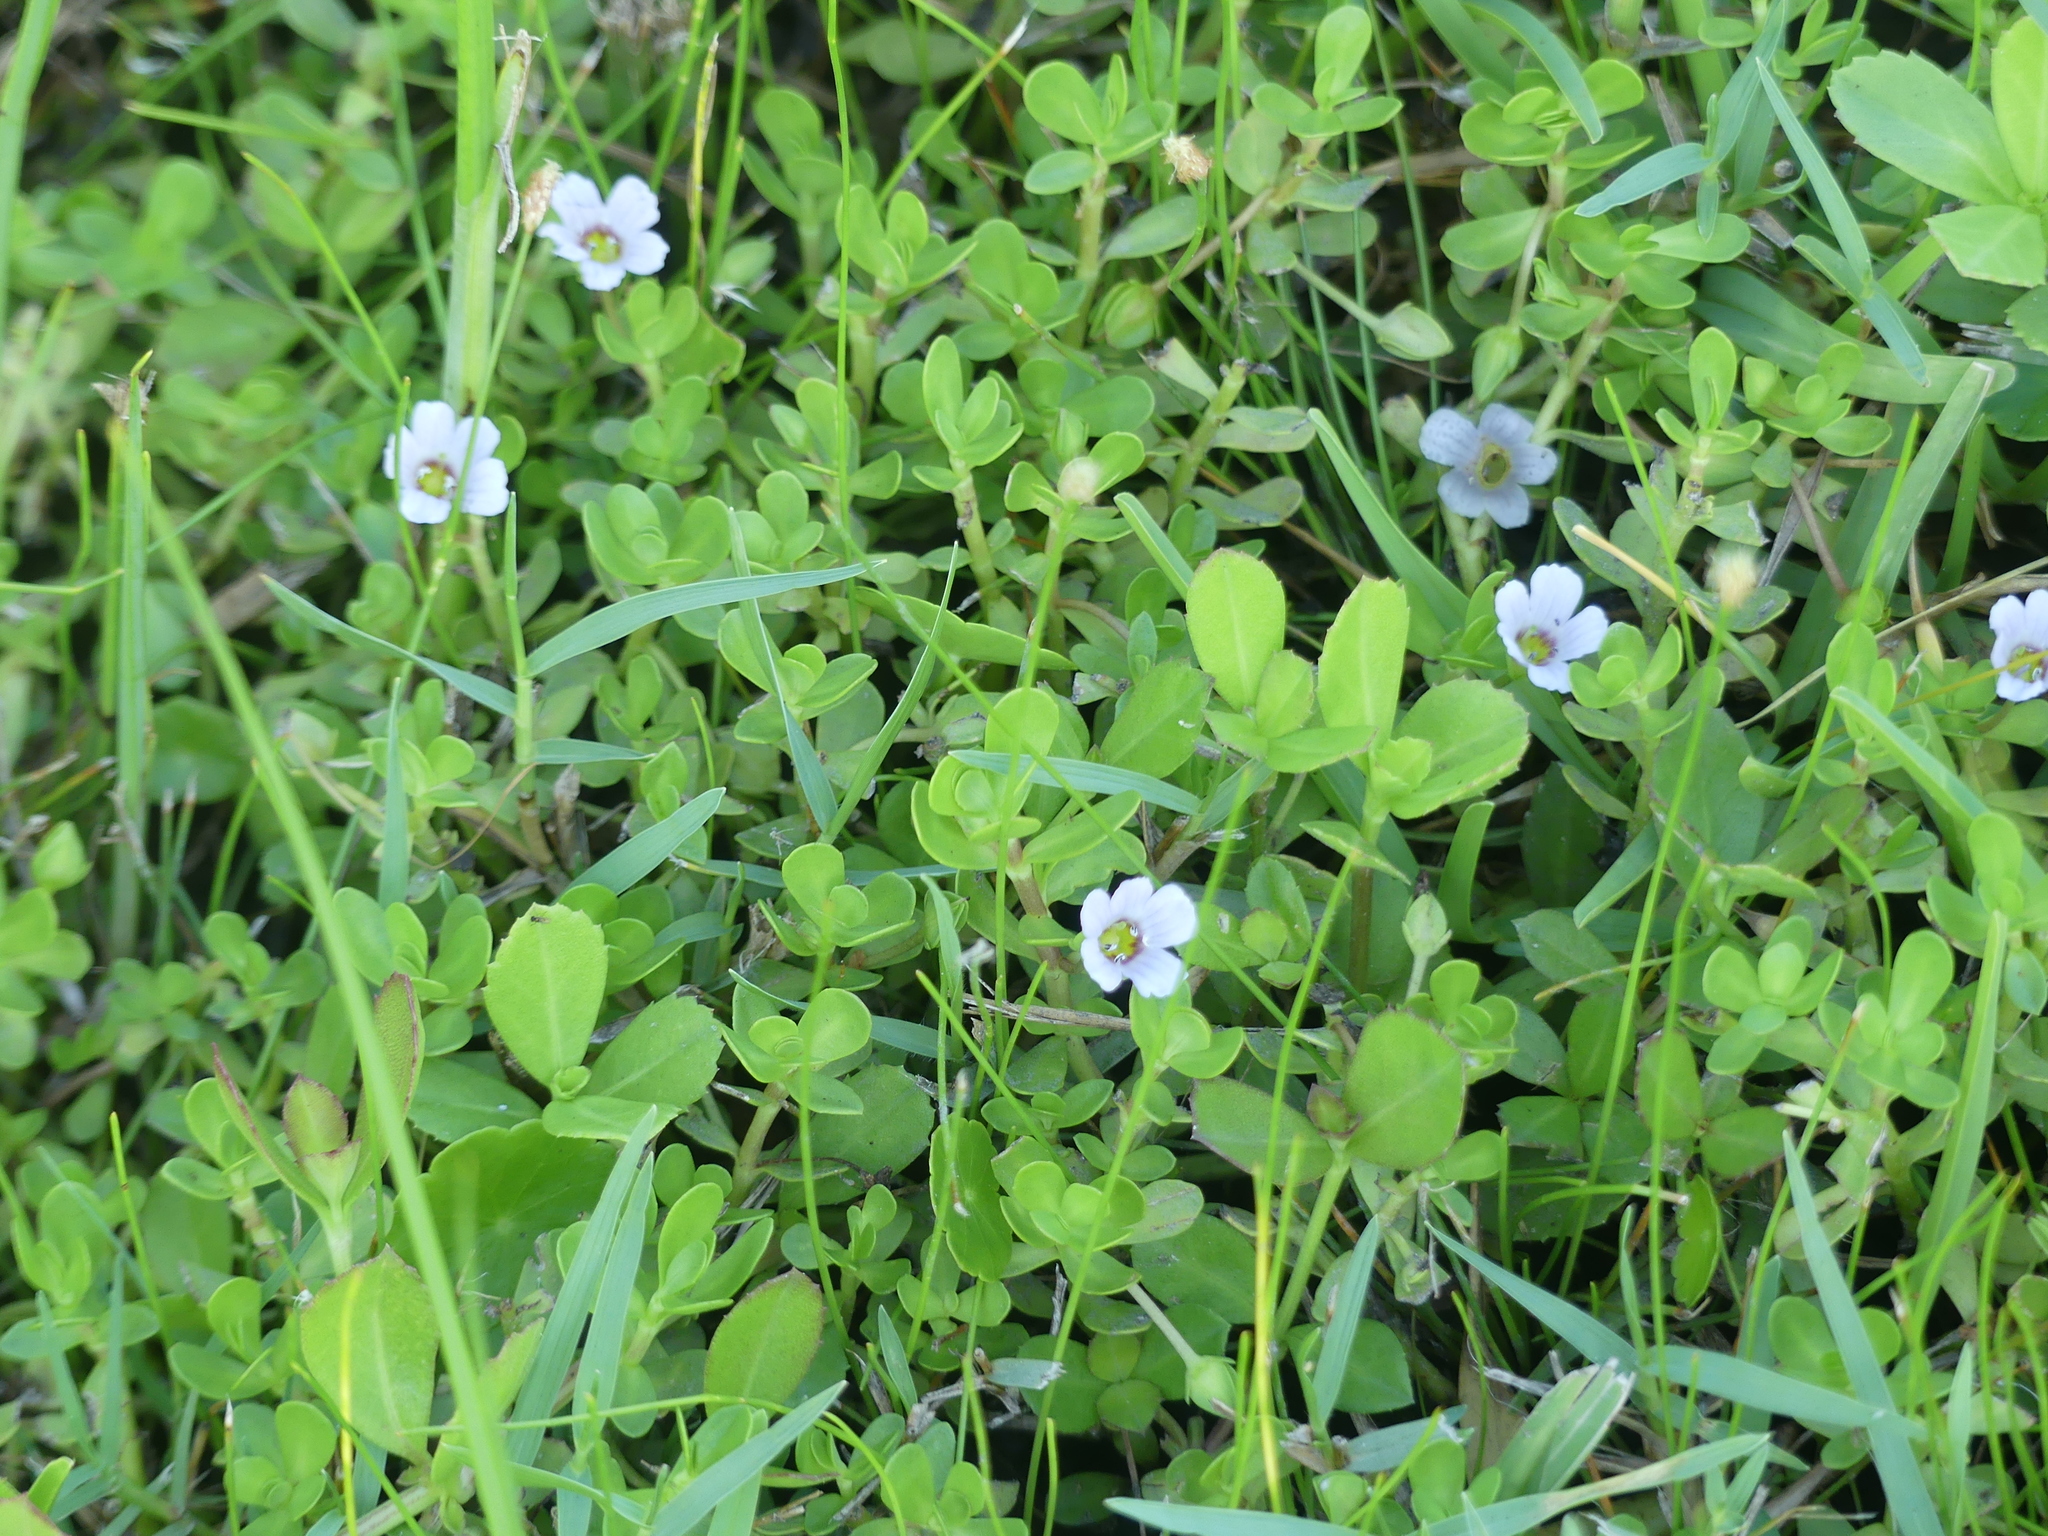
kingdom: Plantae
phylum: Tracheophyta
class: Magnoliopsida
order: Lamiales
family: Plantaginaceae
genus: Bacopa
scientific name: Bacopa monnieri
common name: Indian-pennywort
